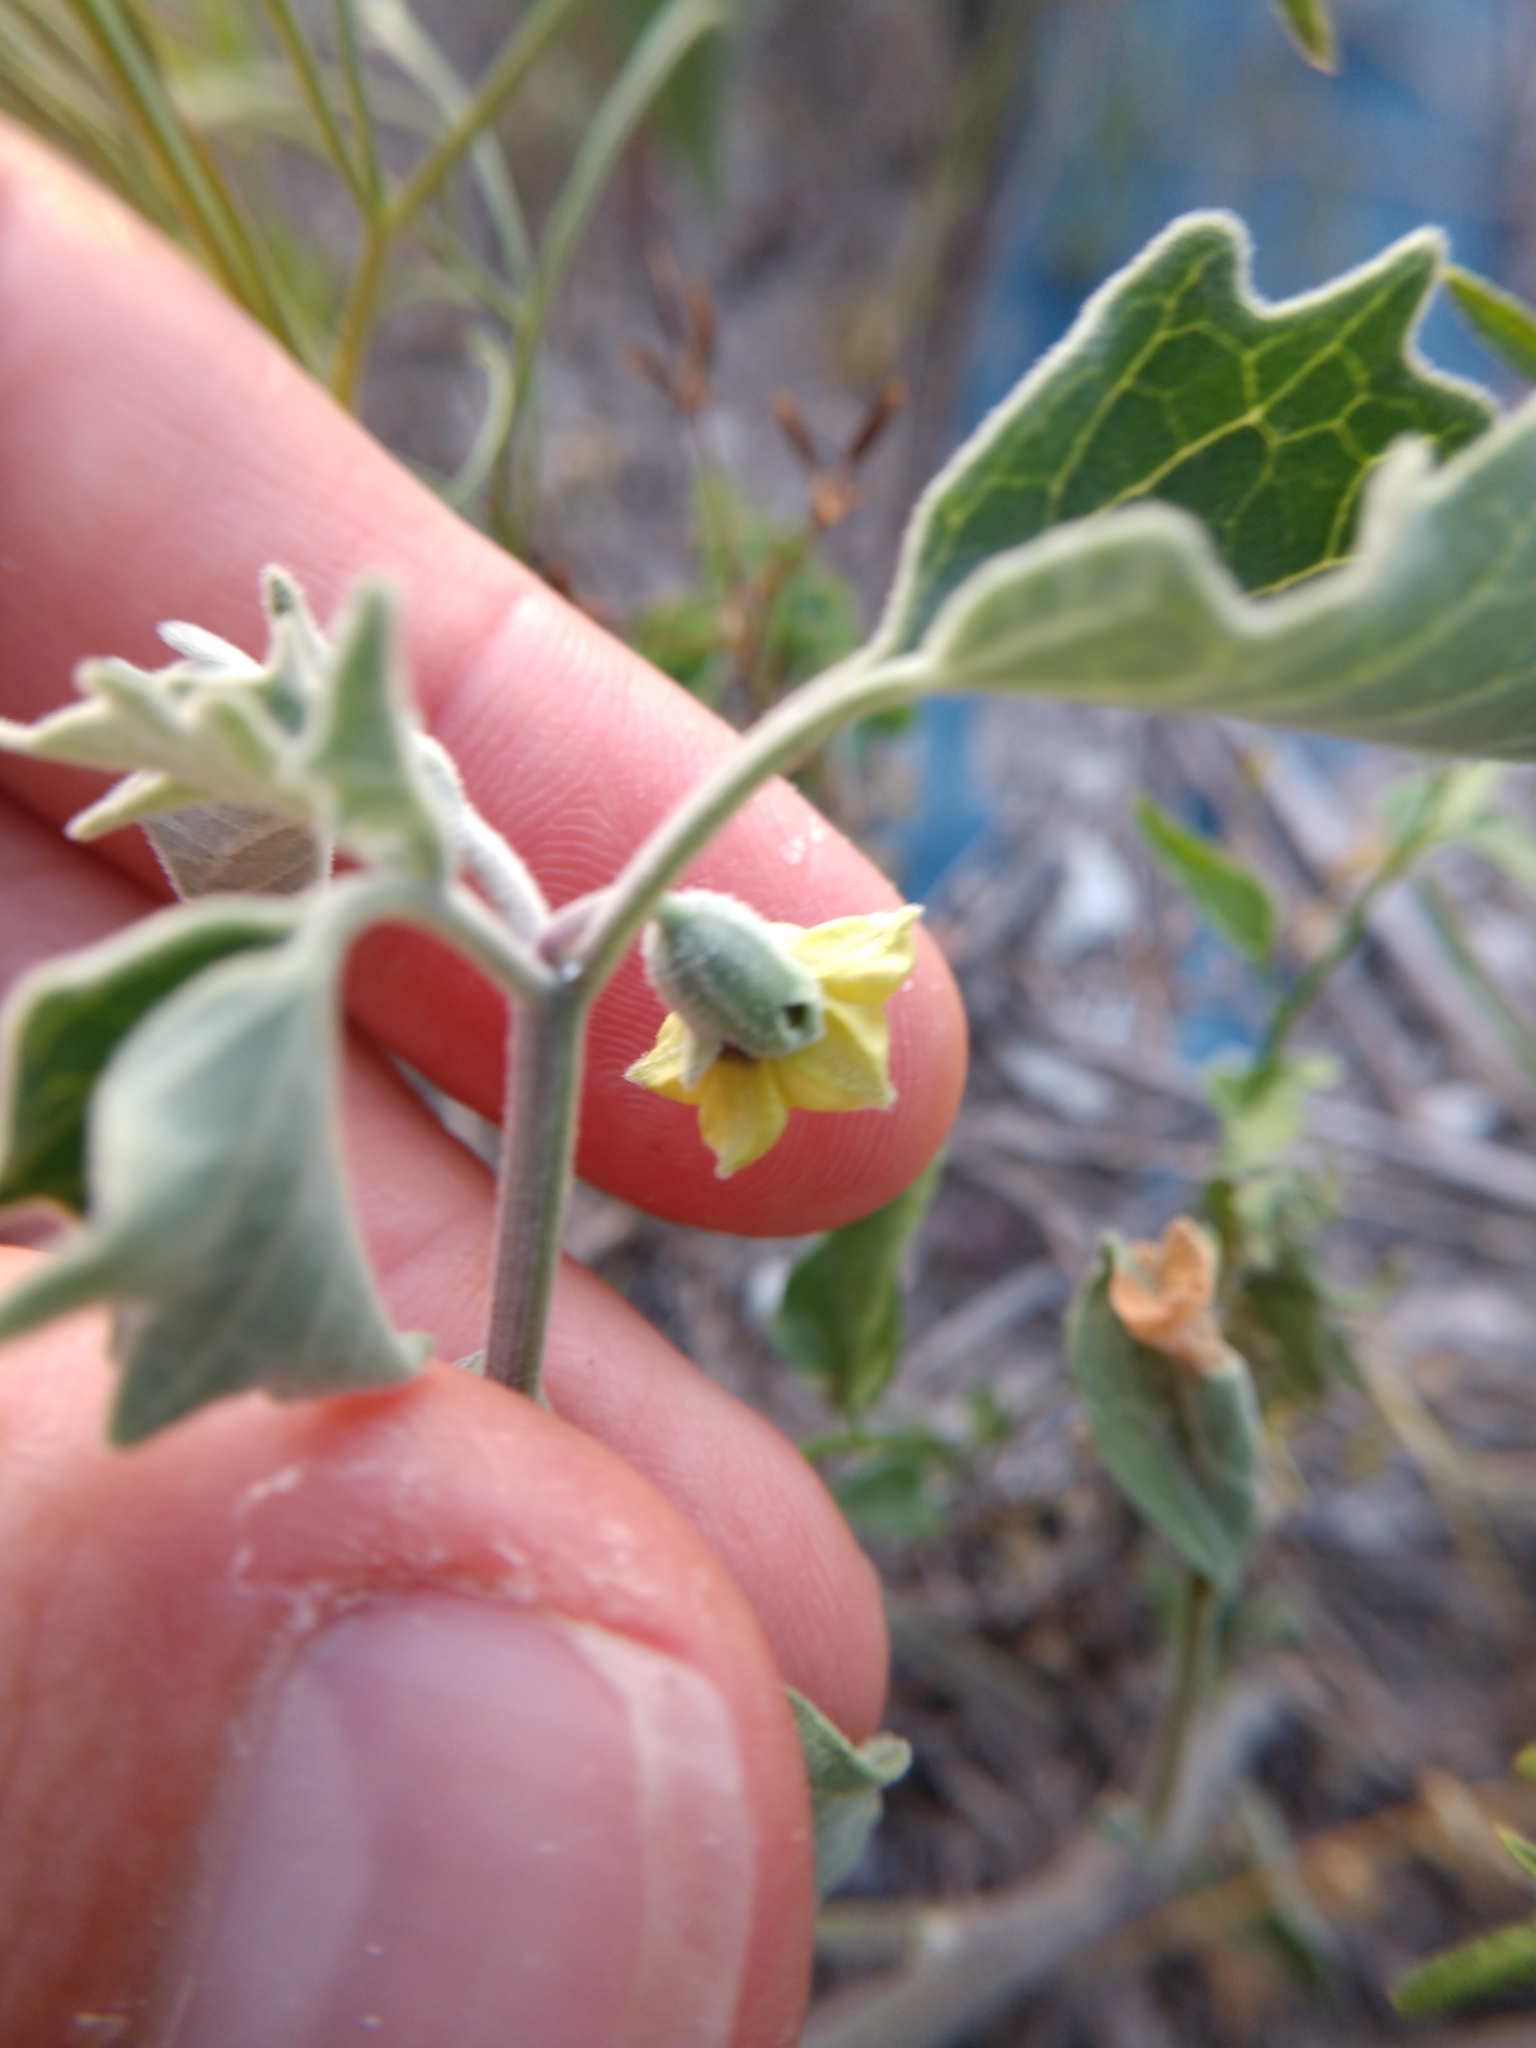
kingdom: Plantae
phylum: Tracheophyta
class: Magnoliopsida
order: Solanales
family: Solanaceae
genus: Physalis
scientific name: Physalis cinerascens
